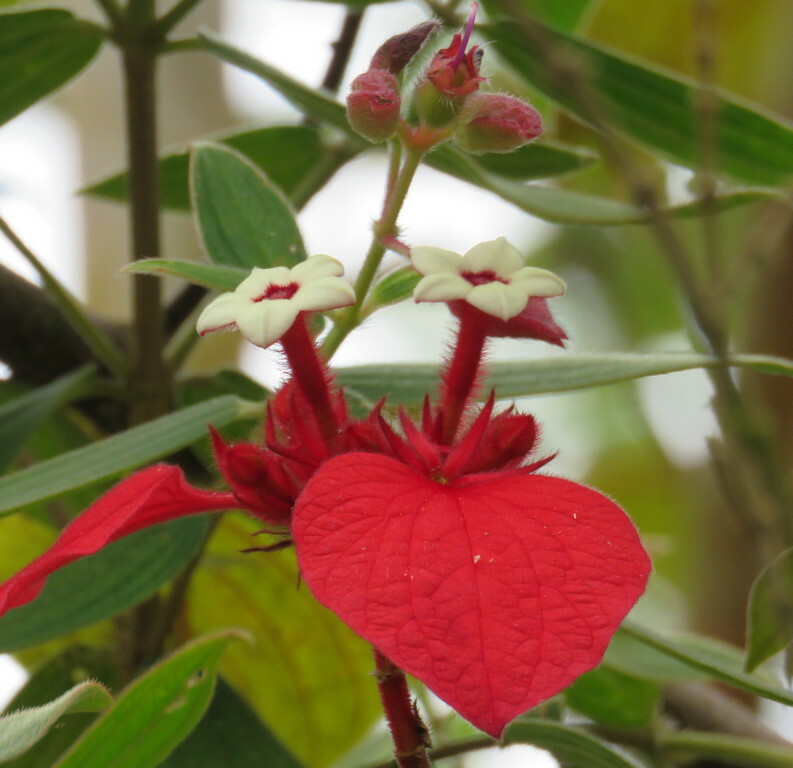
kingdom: Plantae
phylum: Tracheophyta
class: Magnoliopsida
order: Gentianales
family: Rubiaceae
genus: Mussaenda
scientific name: Mussaenda erythrophylla
